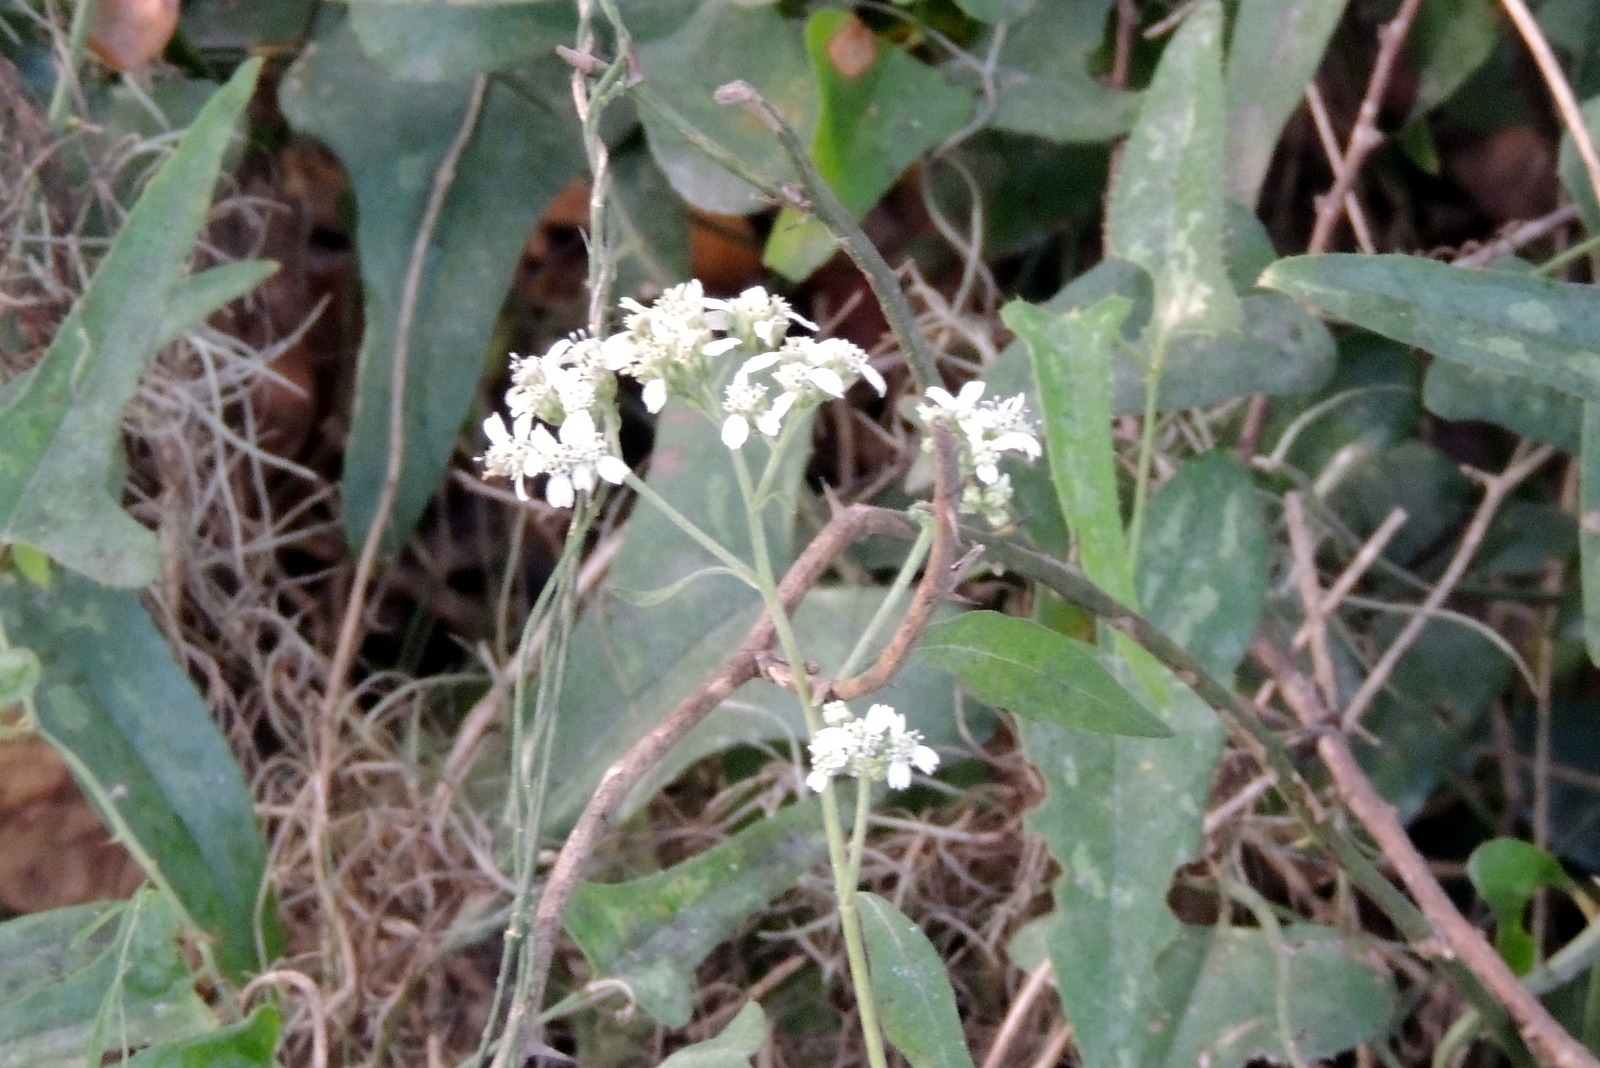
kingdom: Plantae
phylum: Tracheophyta
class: Magnoliopsida
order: Asterales
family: Asteraceae
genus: Verbesina
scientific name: Verbesina virginica
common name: Frostweed
